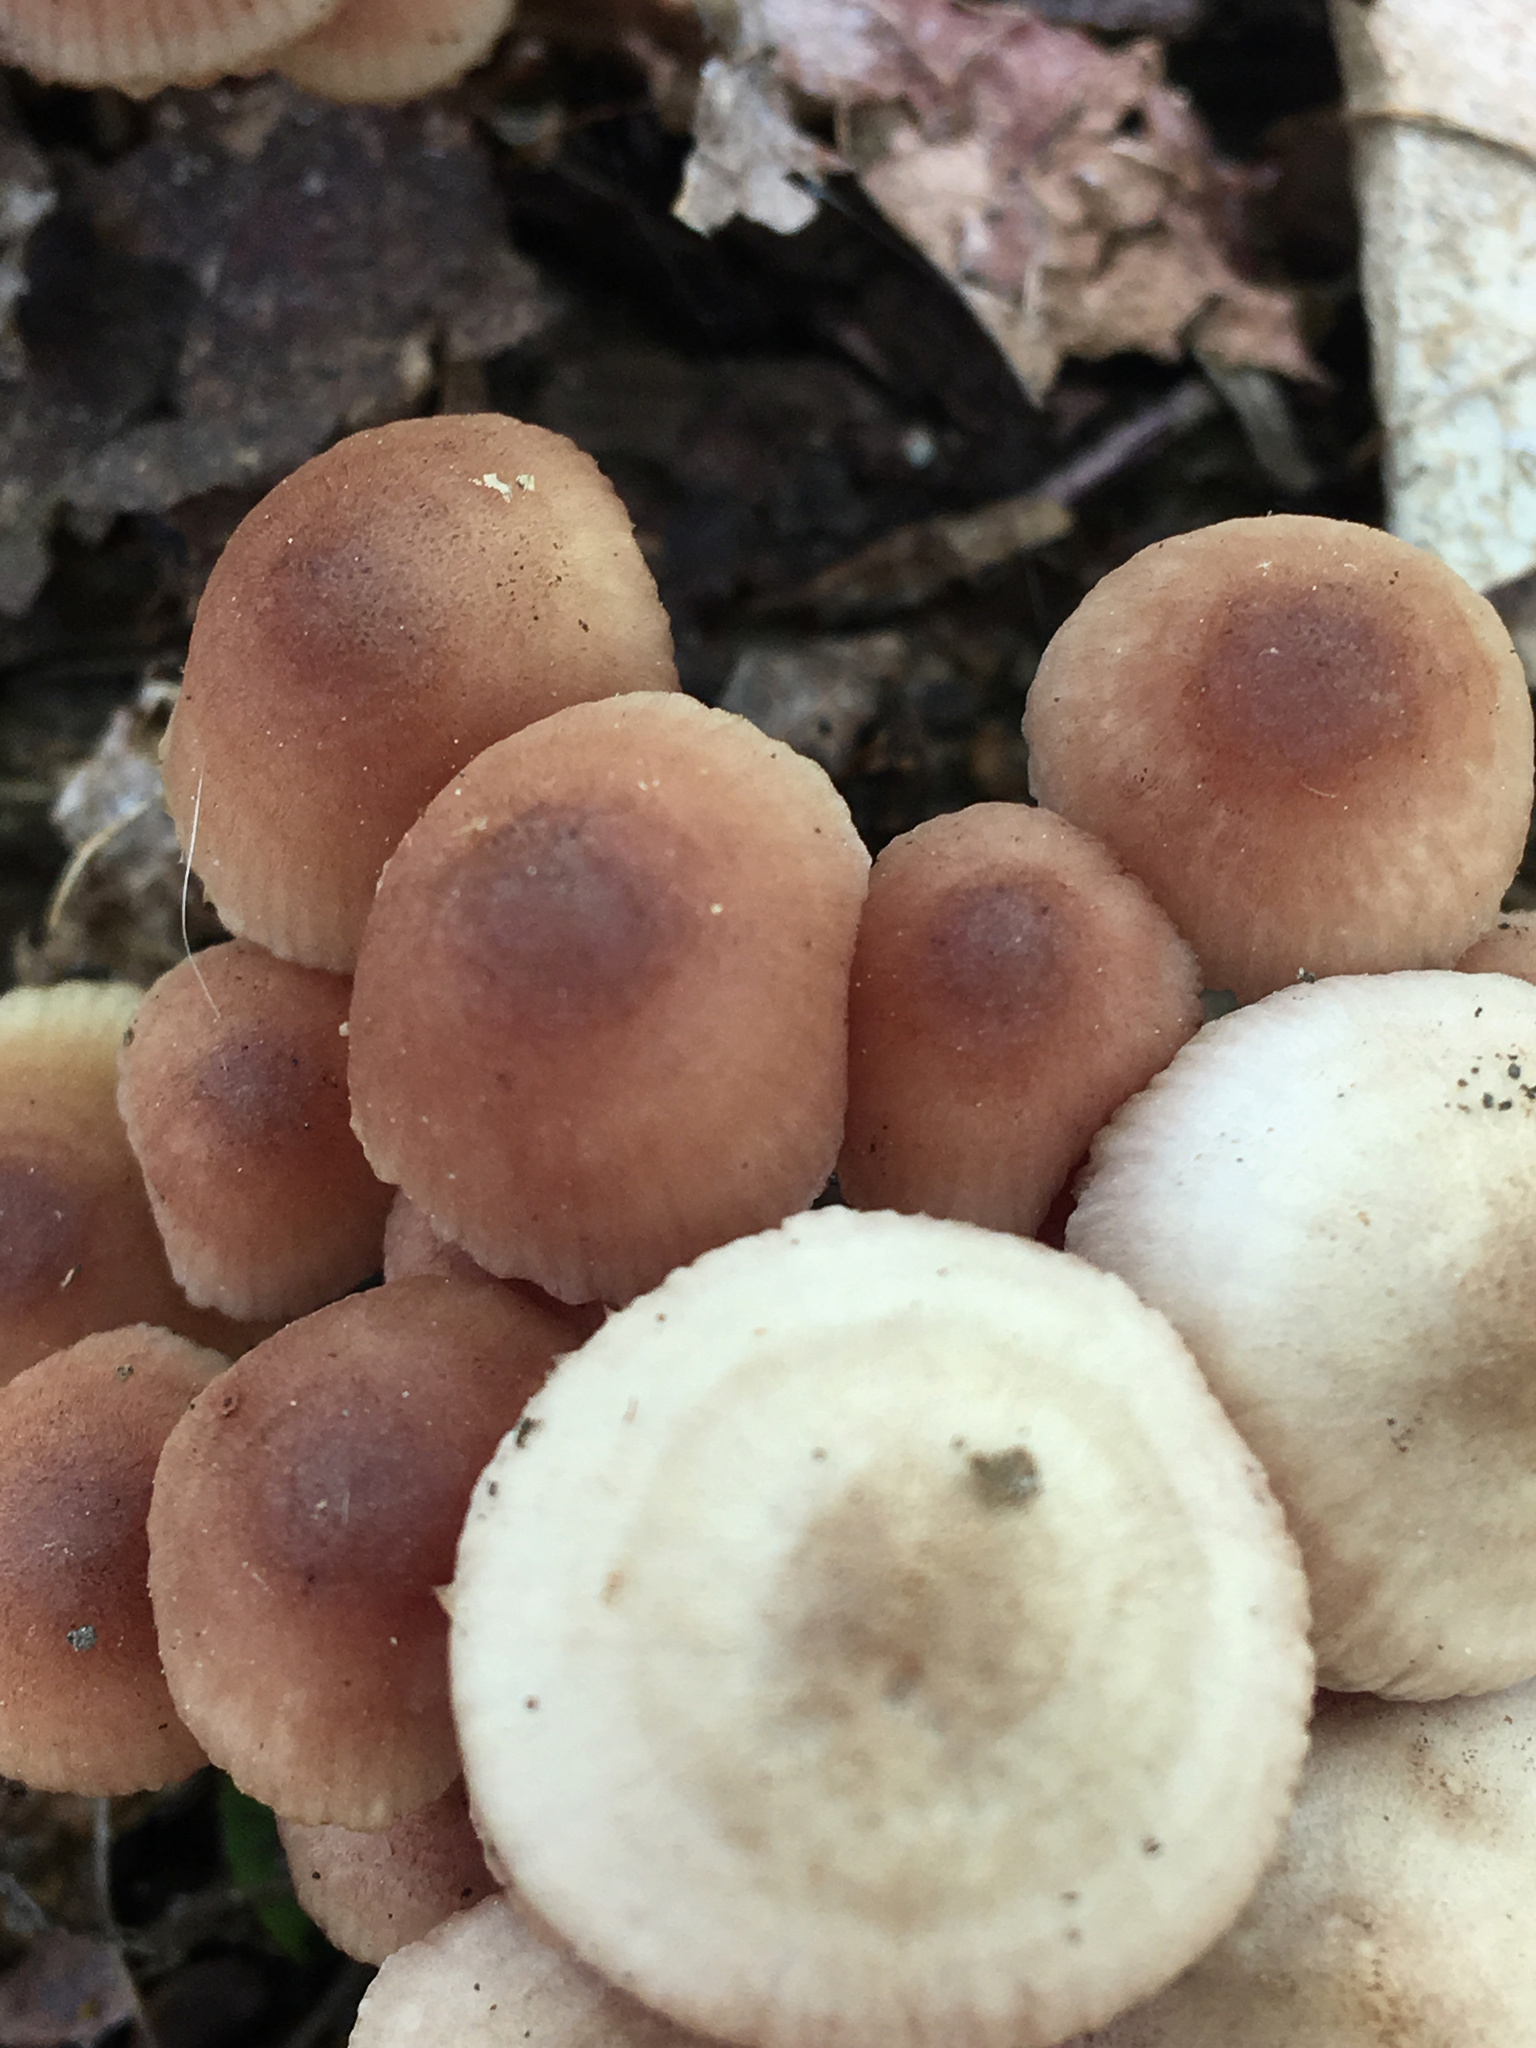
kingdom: Fungi
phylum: Basidiomycota
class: Agaricomycetes
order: Agaricales
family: Mycenaceae
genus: Mycena
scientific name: Mycena haematopus
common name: Burgundydrop bonnet
